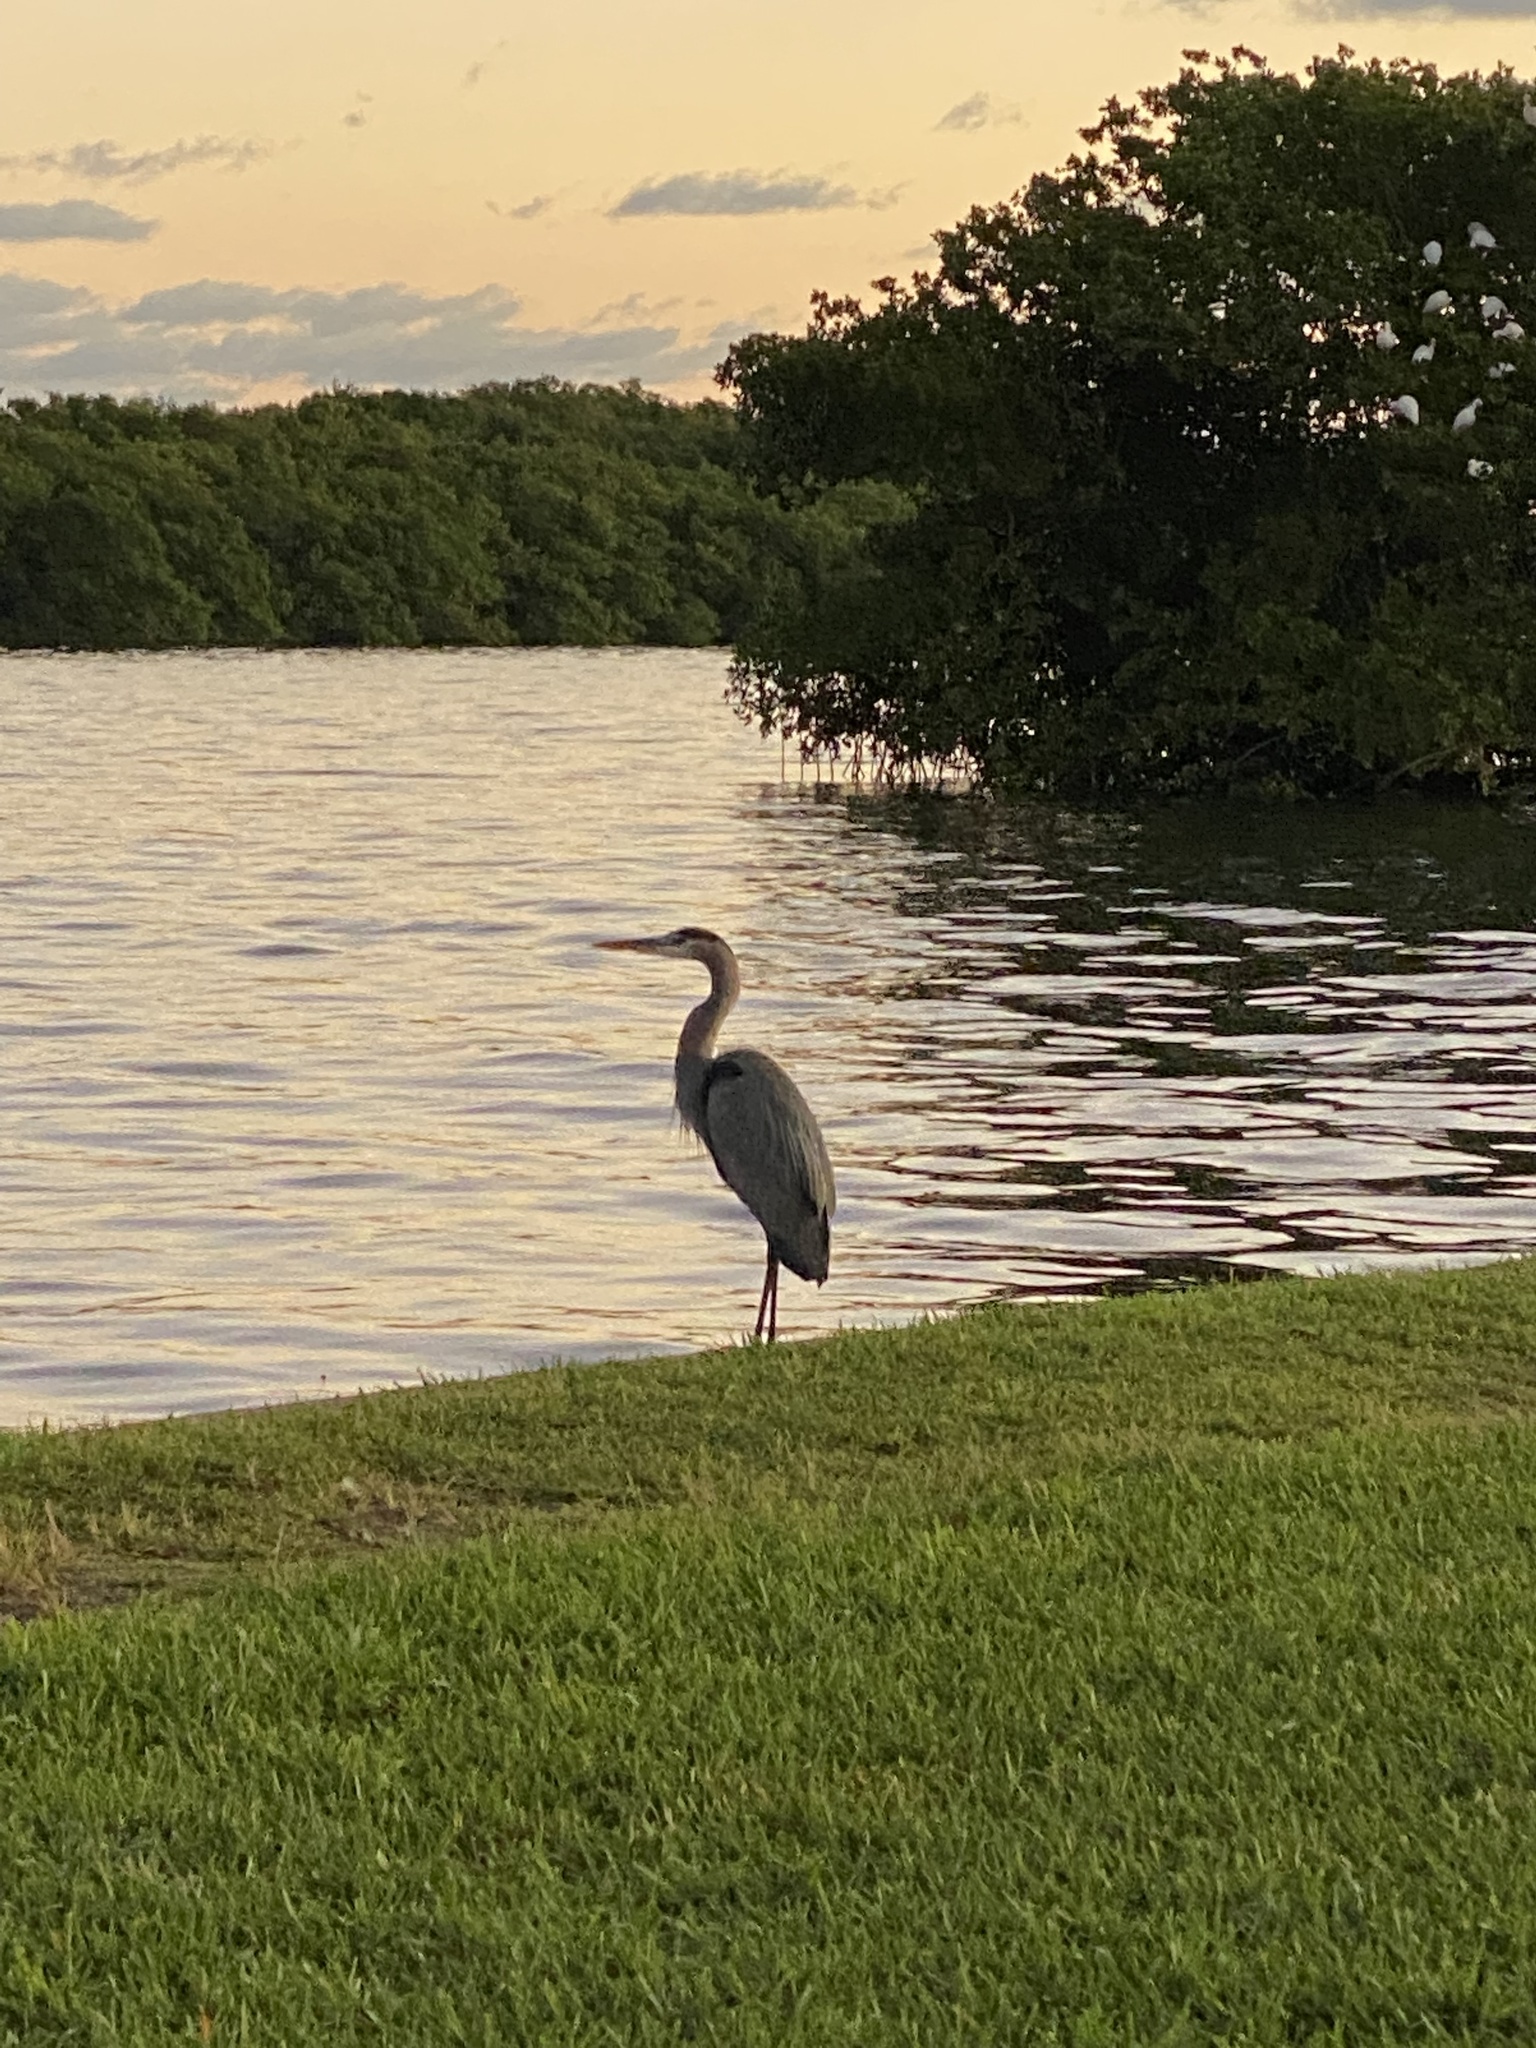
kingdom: Animalia
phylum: Chordata
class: Aves
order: Pelecaniformes
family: Ardeidae
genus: Ardea
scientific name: Ardea herodias
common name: Great blue heron
